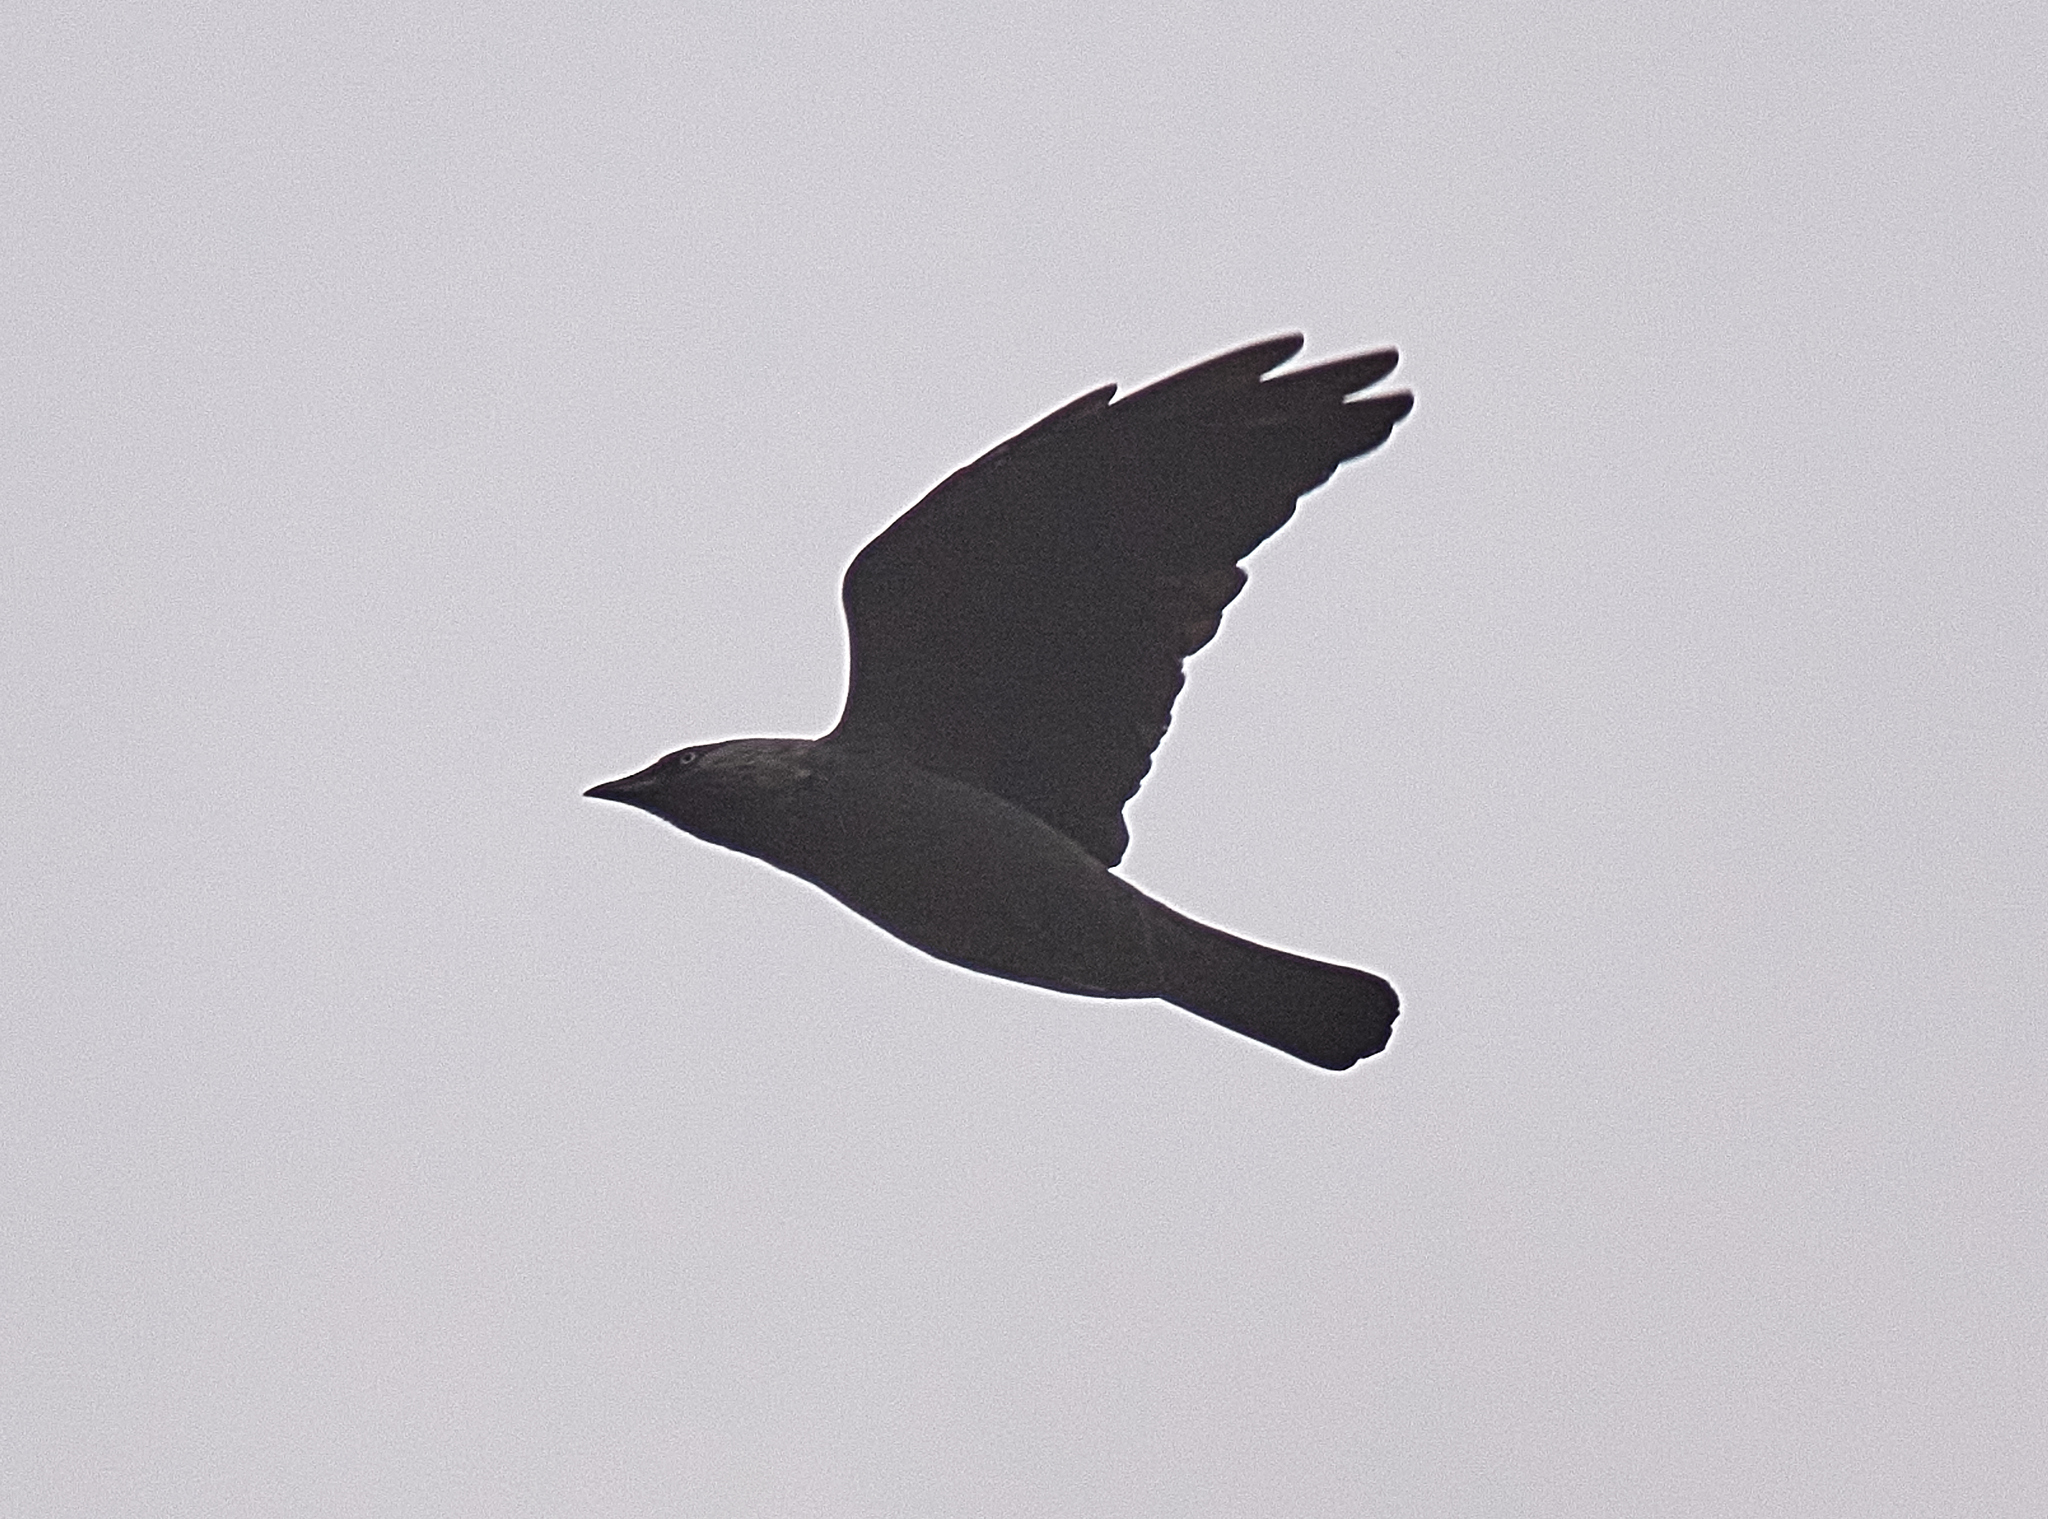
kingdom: Animalia
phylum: Chordata
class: Aves
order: Passeriformes
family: Corvidae
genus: Coloeus
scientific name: Coloeus monedula
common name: Western jackdaw
